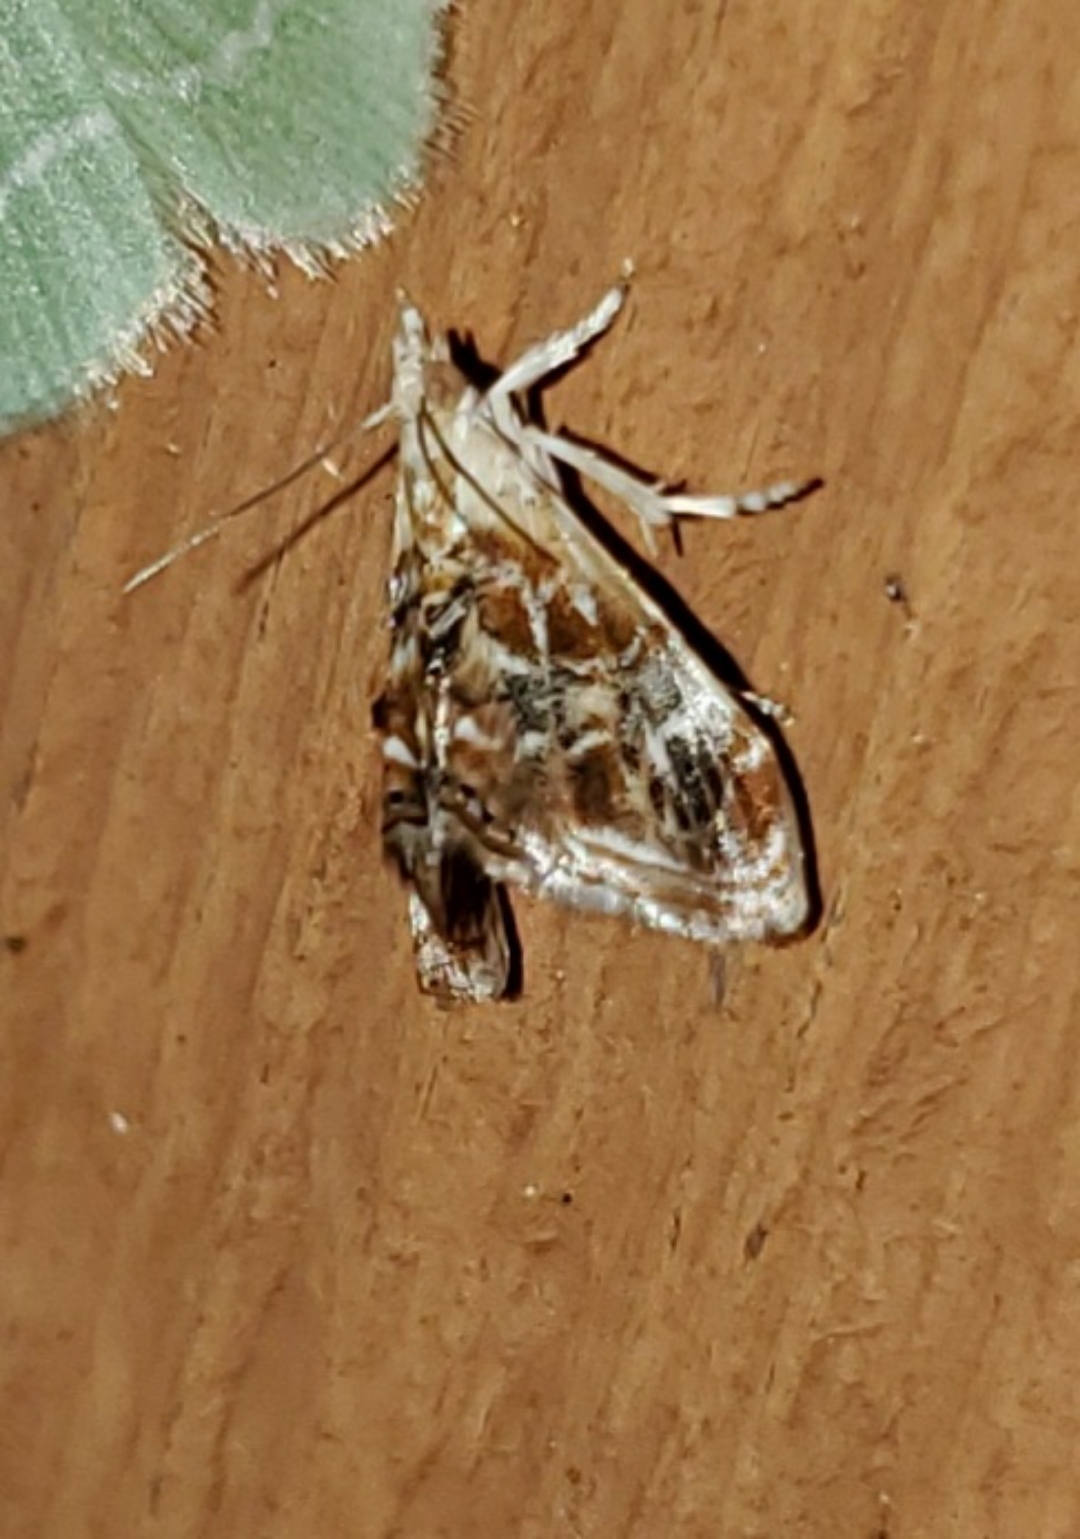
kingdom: Animalia
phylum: Arthropoda
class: Insecta
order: Lepidoptera
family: Crambidae
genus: Dicymolomia
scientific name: Dicymolomia julianalis
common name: Julia's dicymolomia moth
